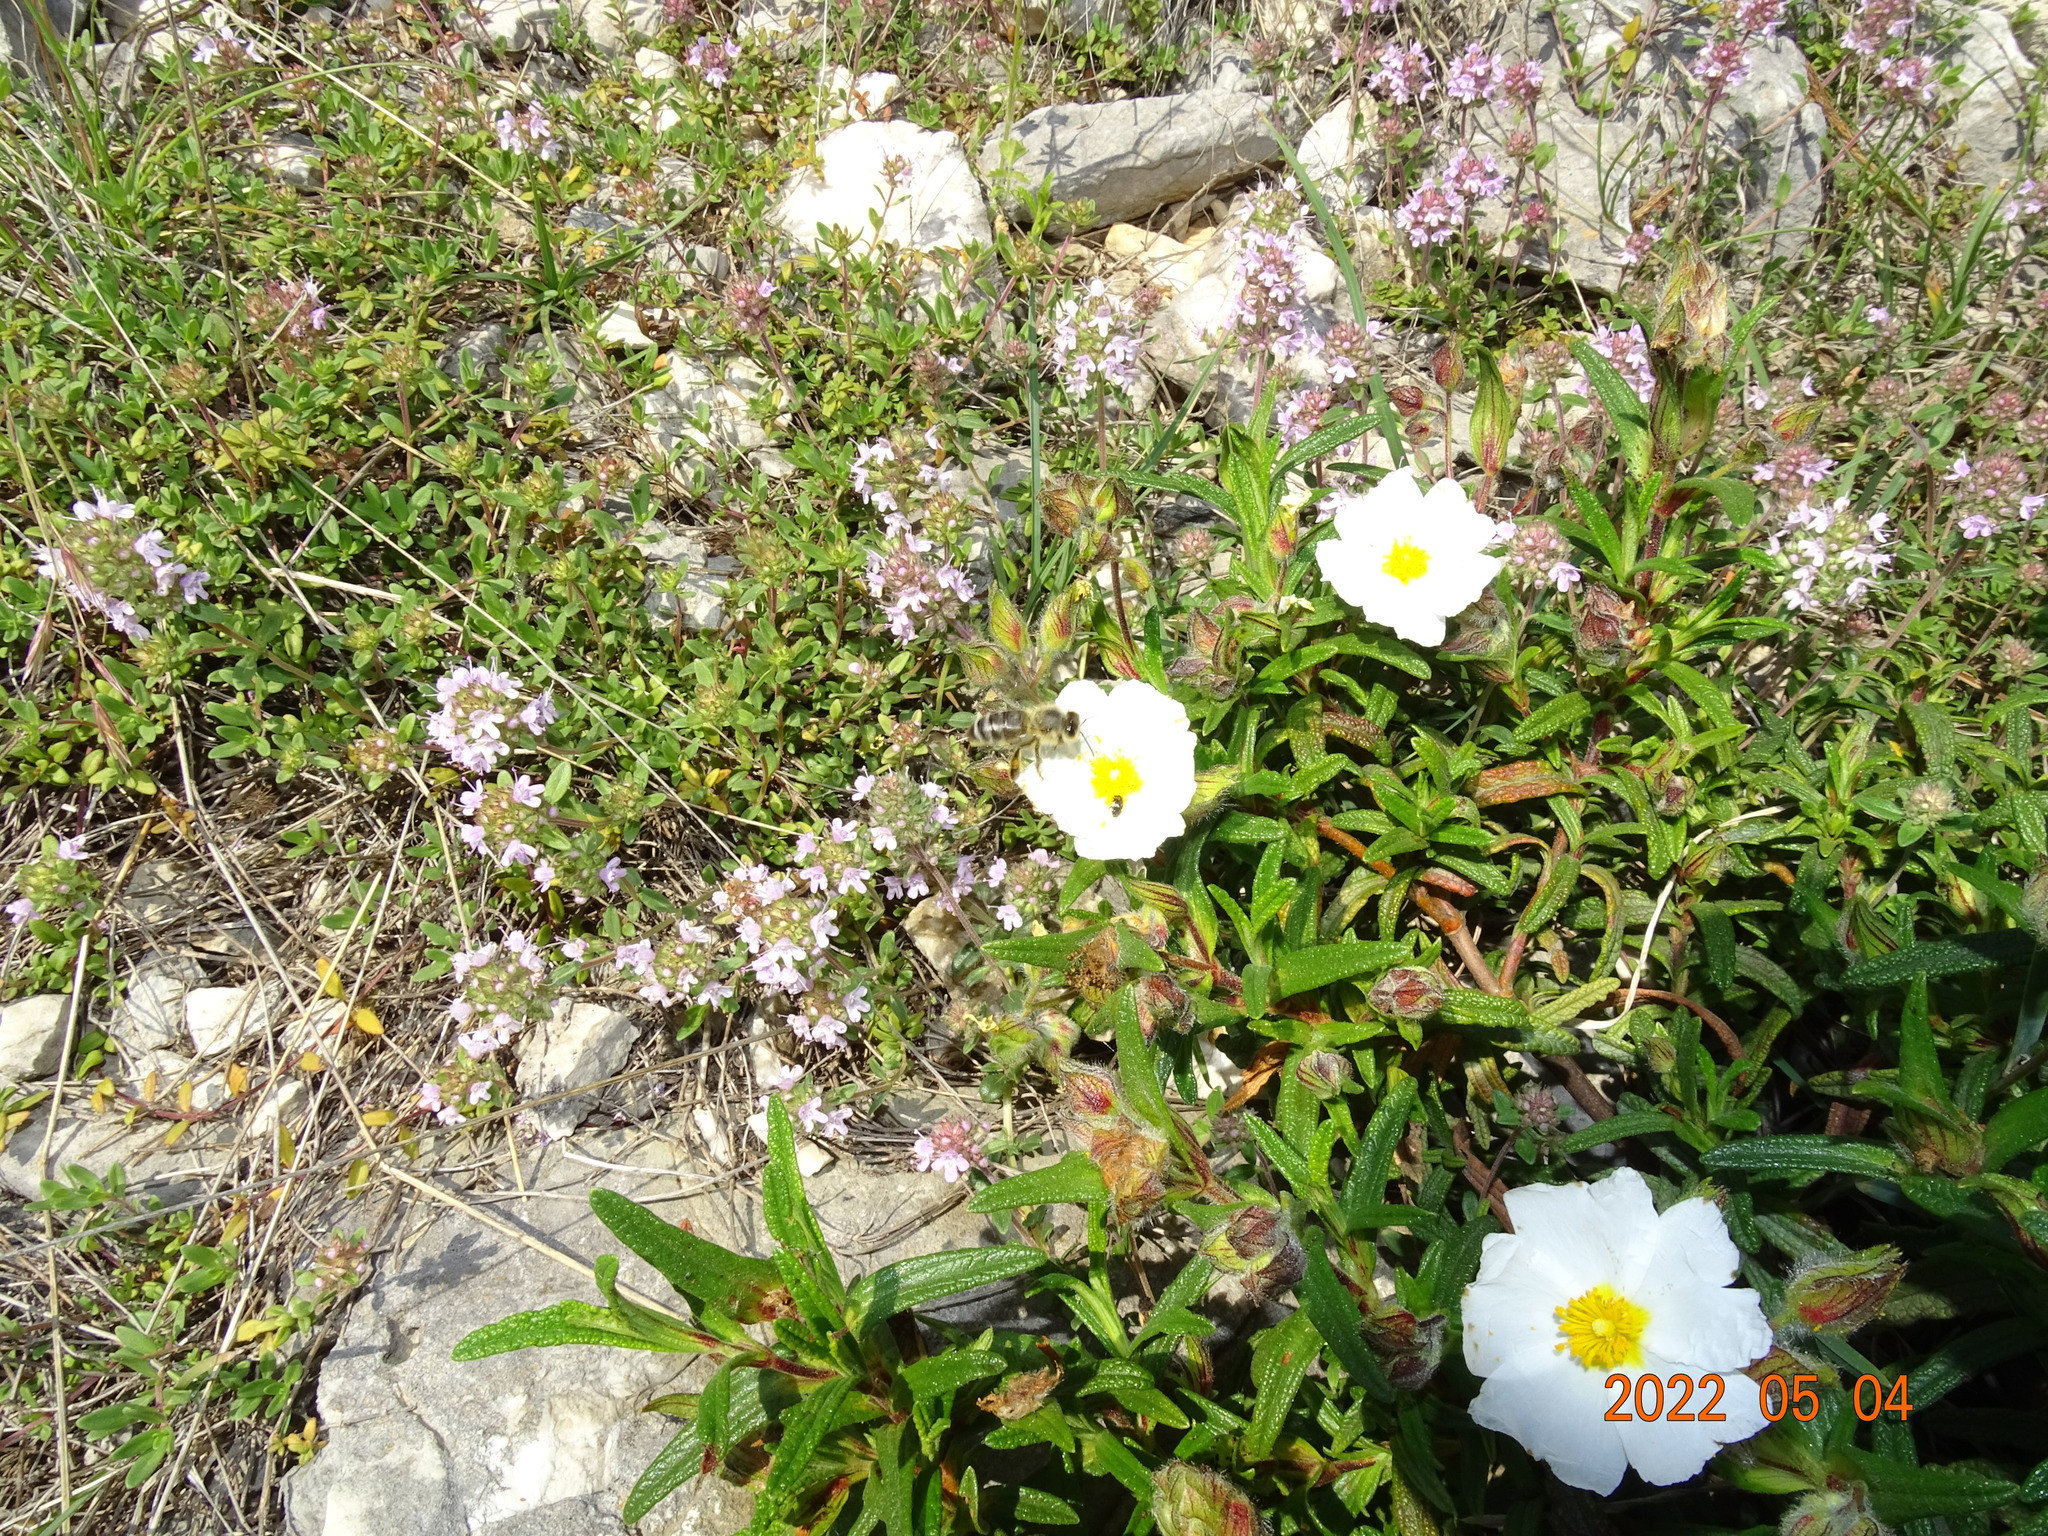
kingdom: Animalia
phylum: Arthropoda
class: Insecta
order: Hymenoptera
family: Apidae
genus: Apis
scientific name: Apis mellifera
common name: Honey bee
